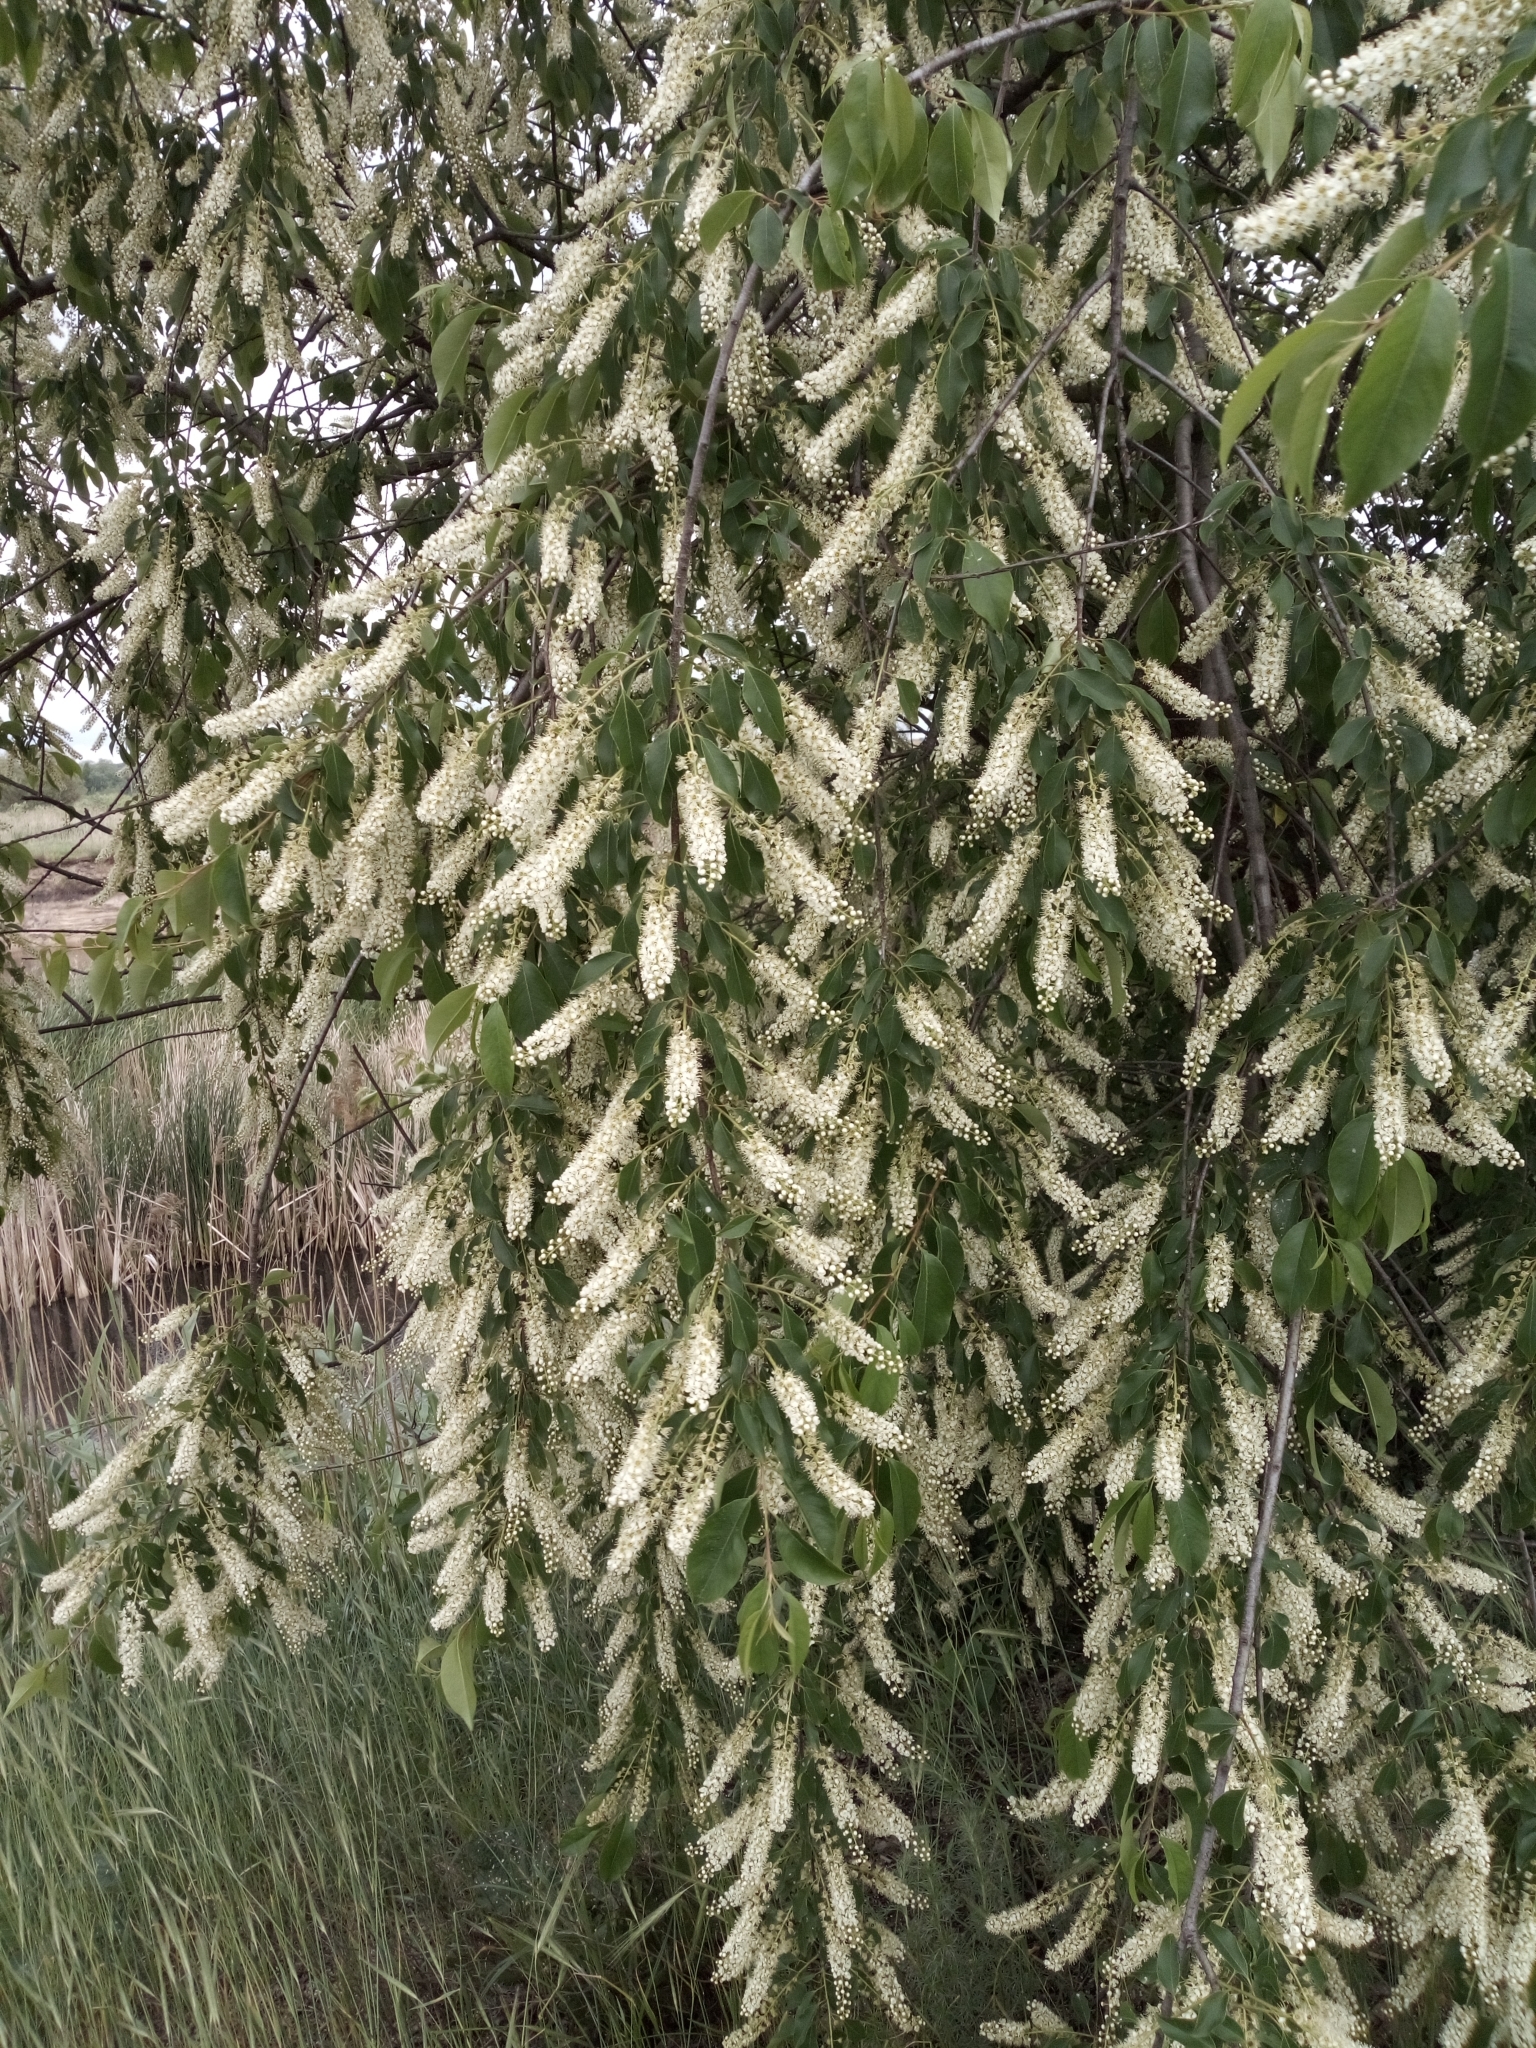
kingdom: Plantae
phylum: Tracheophyta
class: Magnoliopsida
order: Rosales
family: Rosaceae
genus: Prunus
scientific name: Prunus serotina
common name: Black cherry
